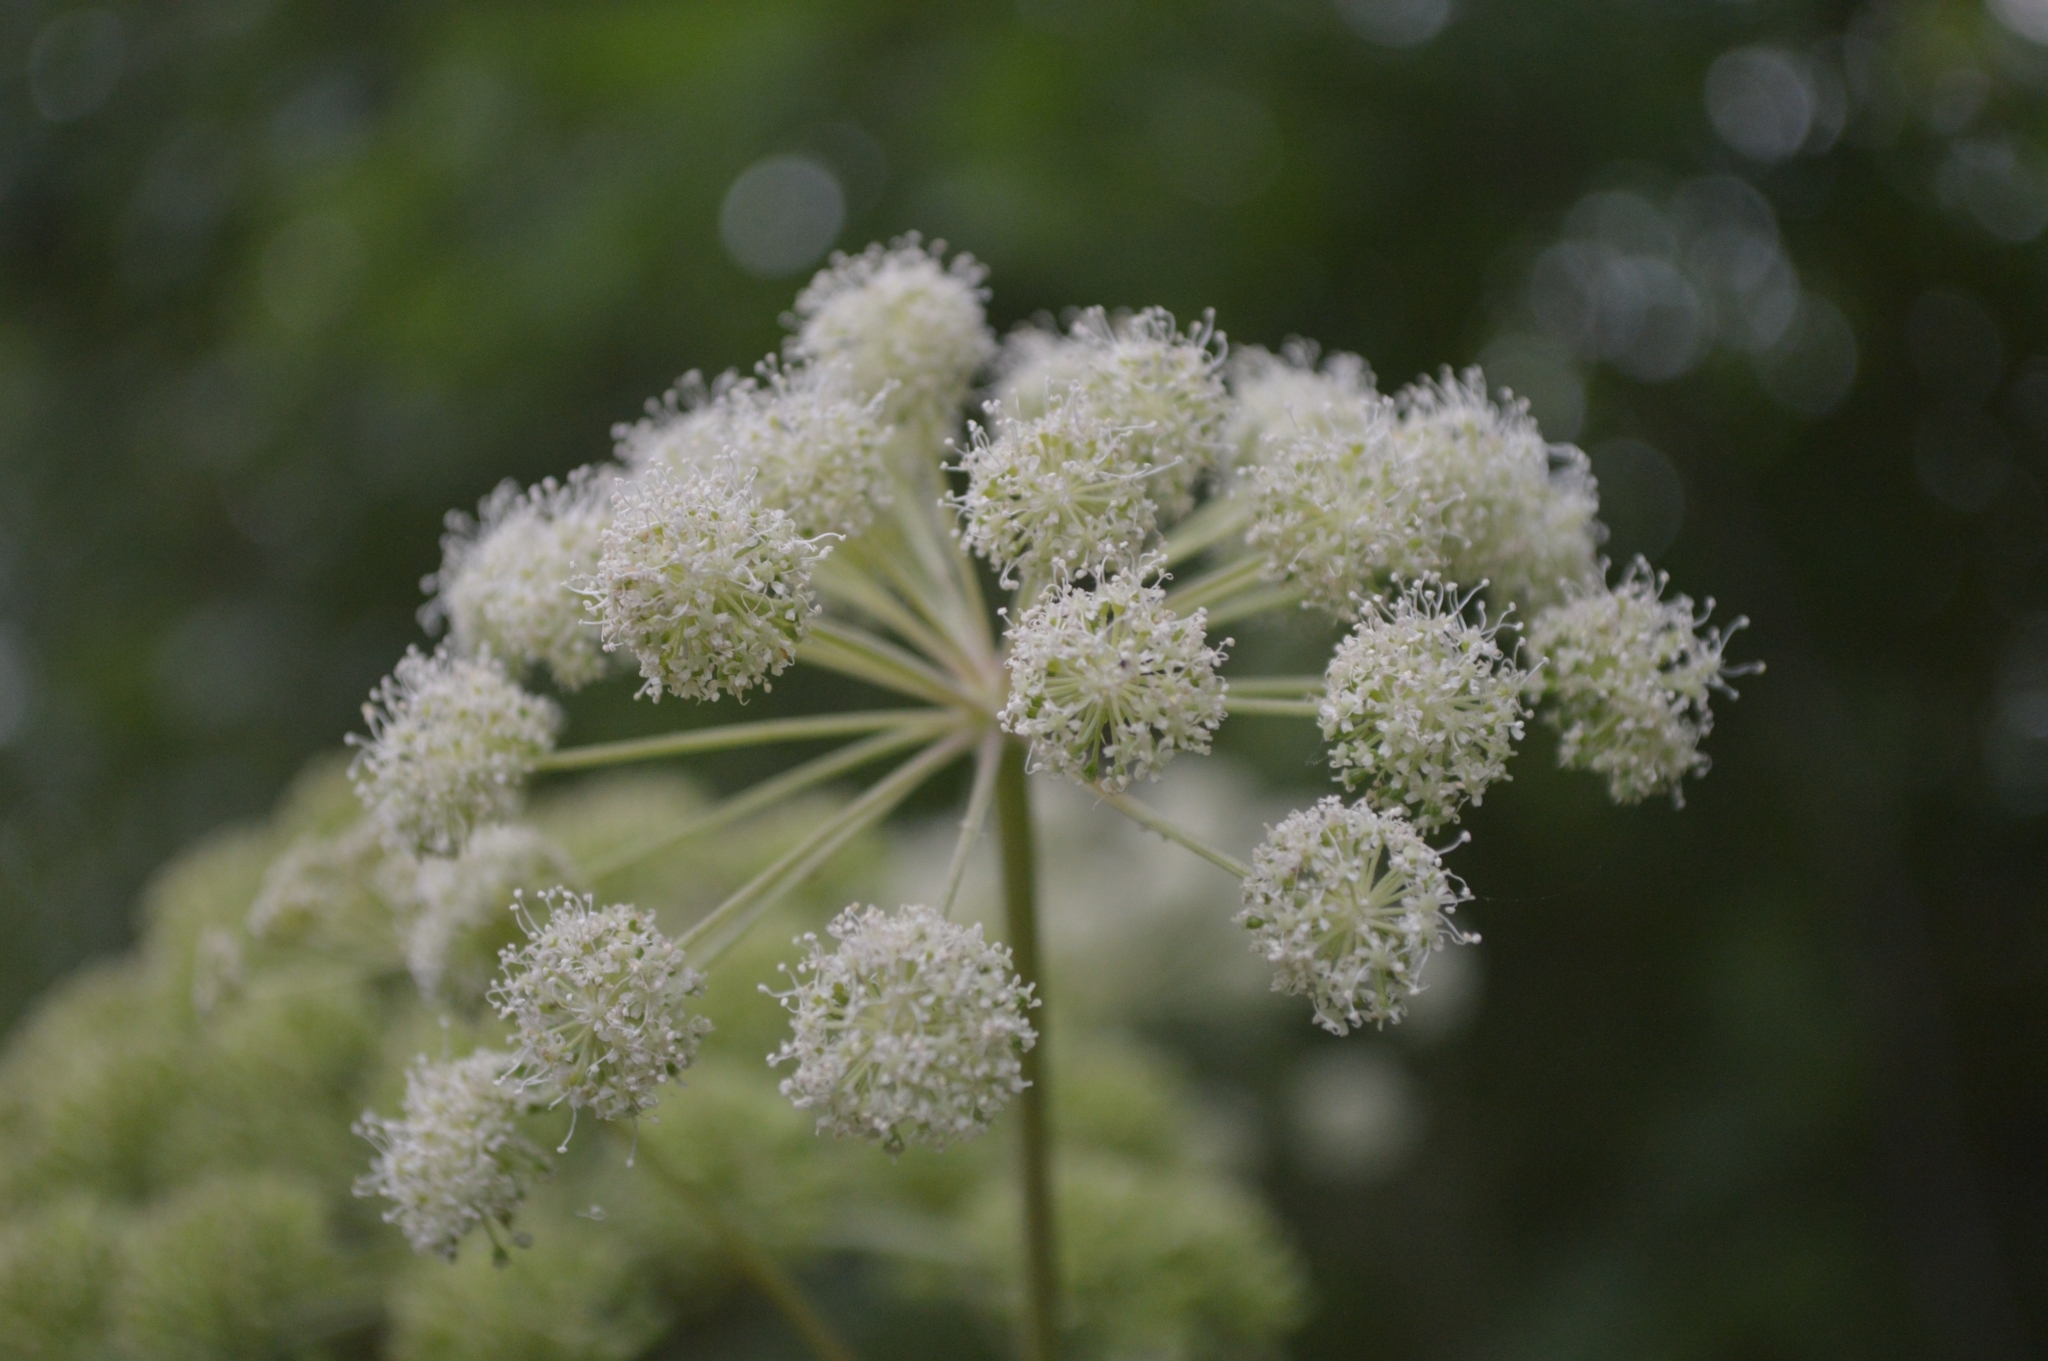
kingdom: Plantae
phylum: Tracheophyta
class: Magnoliopsida
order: Apiales
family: Apiaceae
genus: Angelica
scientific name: Angelica sylvestris
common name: Wild angelica
